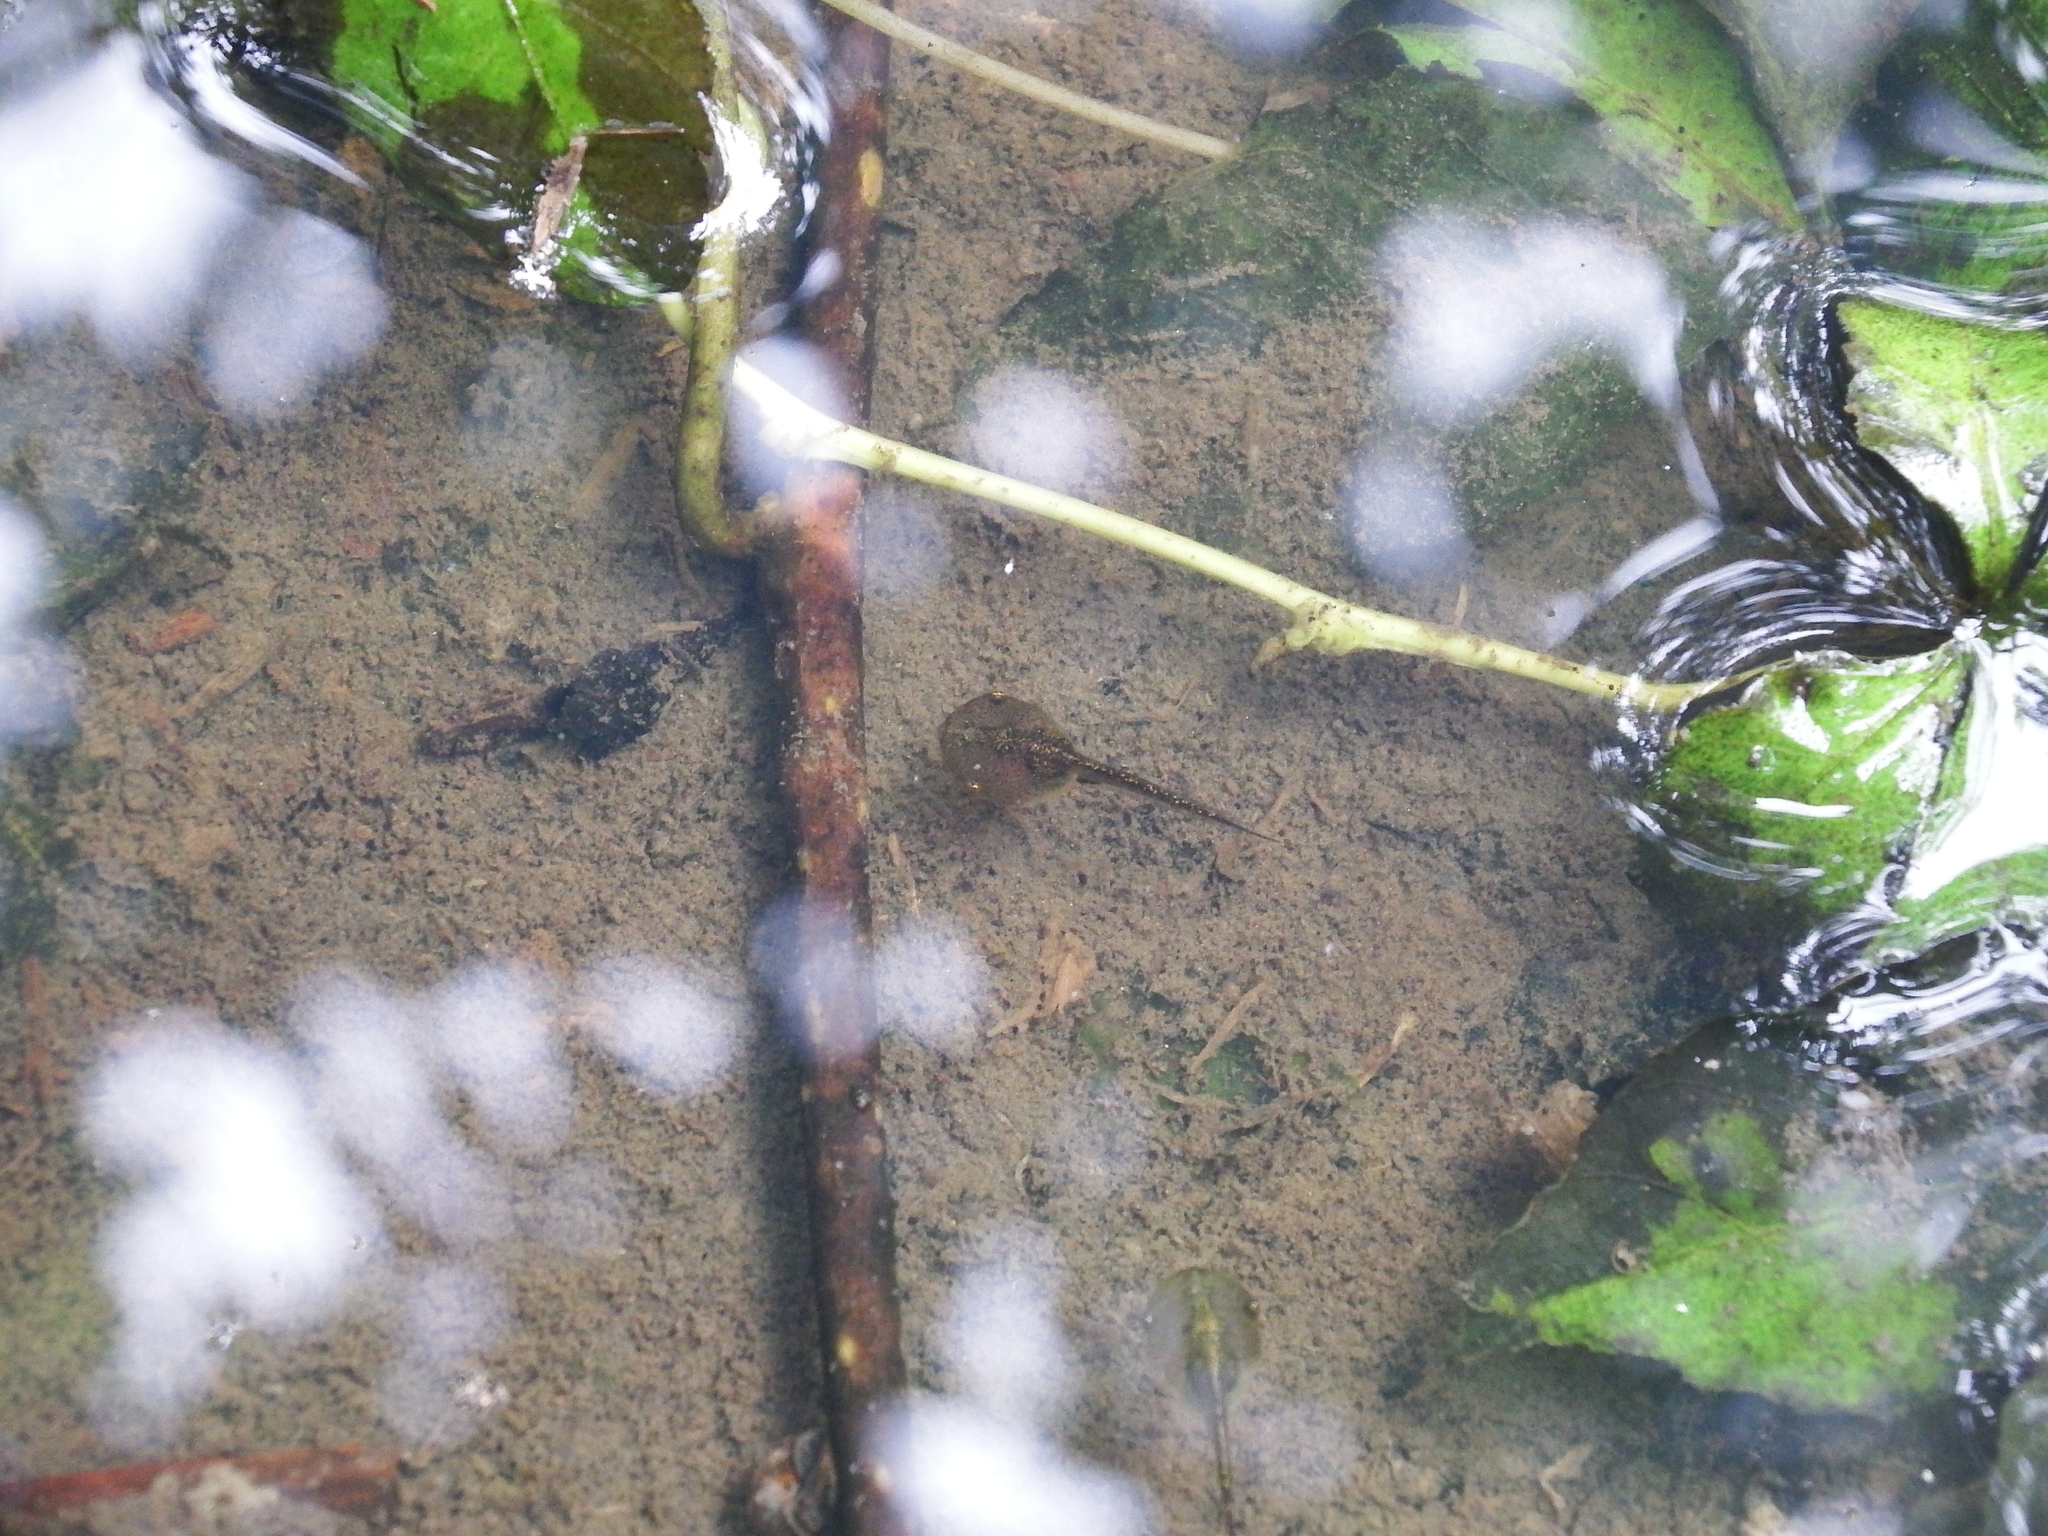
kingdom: Animalia
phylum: Chordata
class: Amphibia
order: Anura
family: Microhylidae
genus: Microhyla
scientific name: Microhyla fissipes
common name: Ornate narrow-mouthed frog
